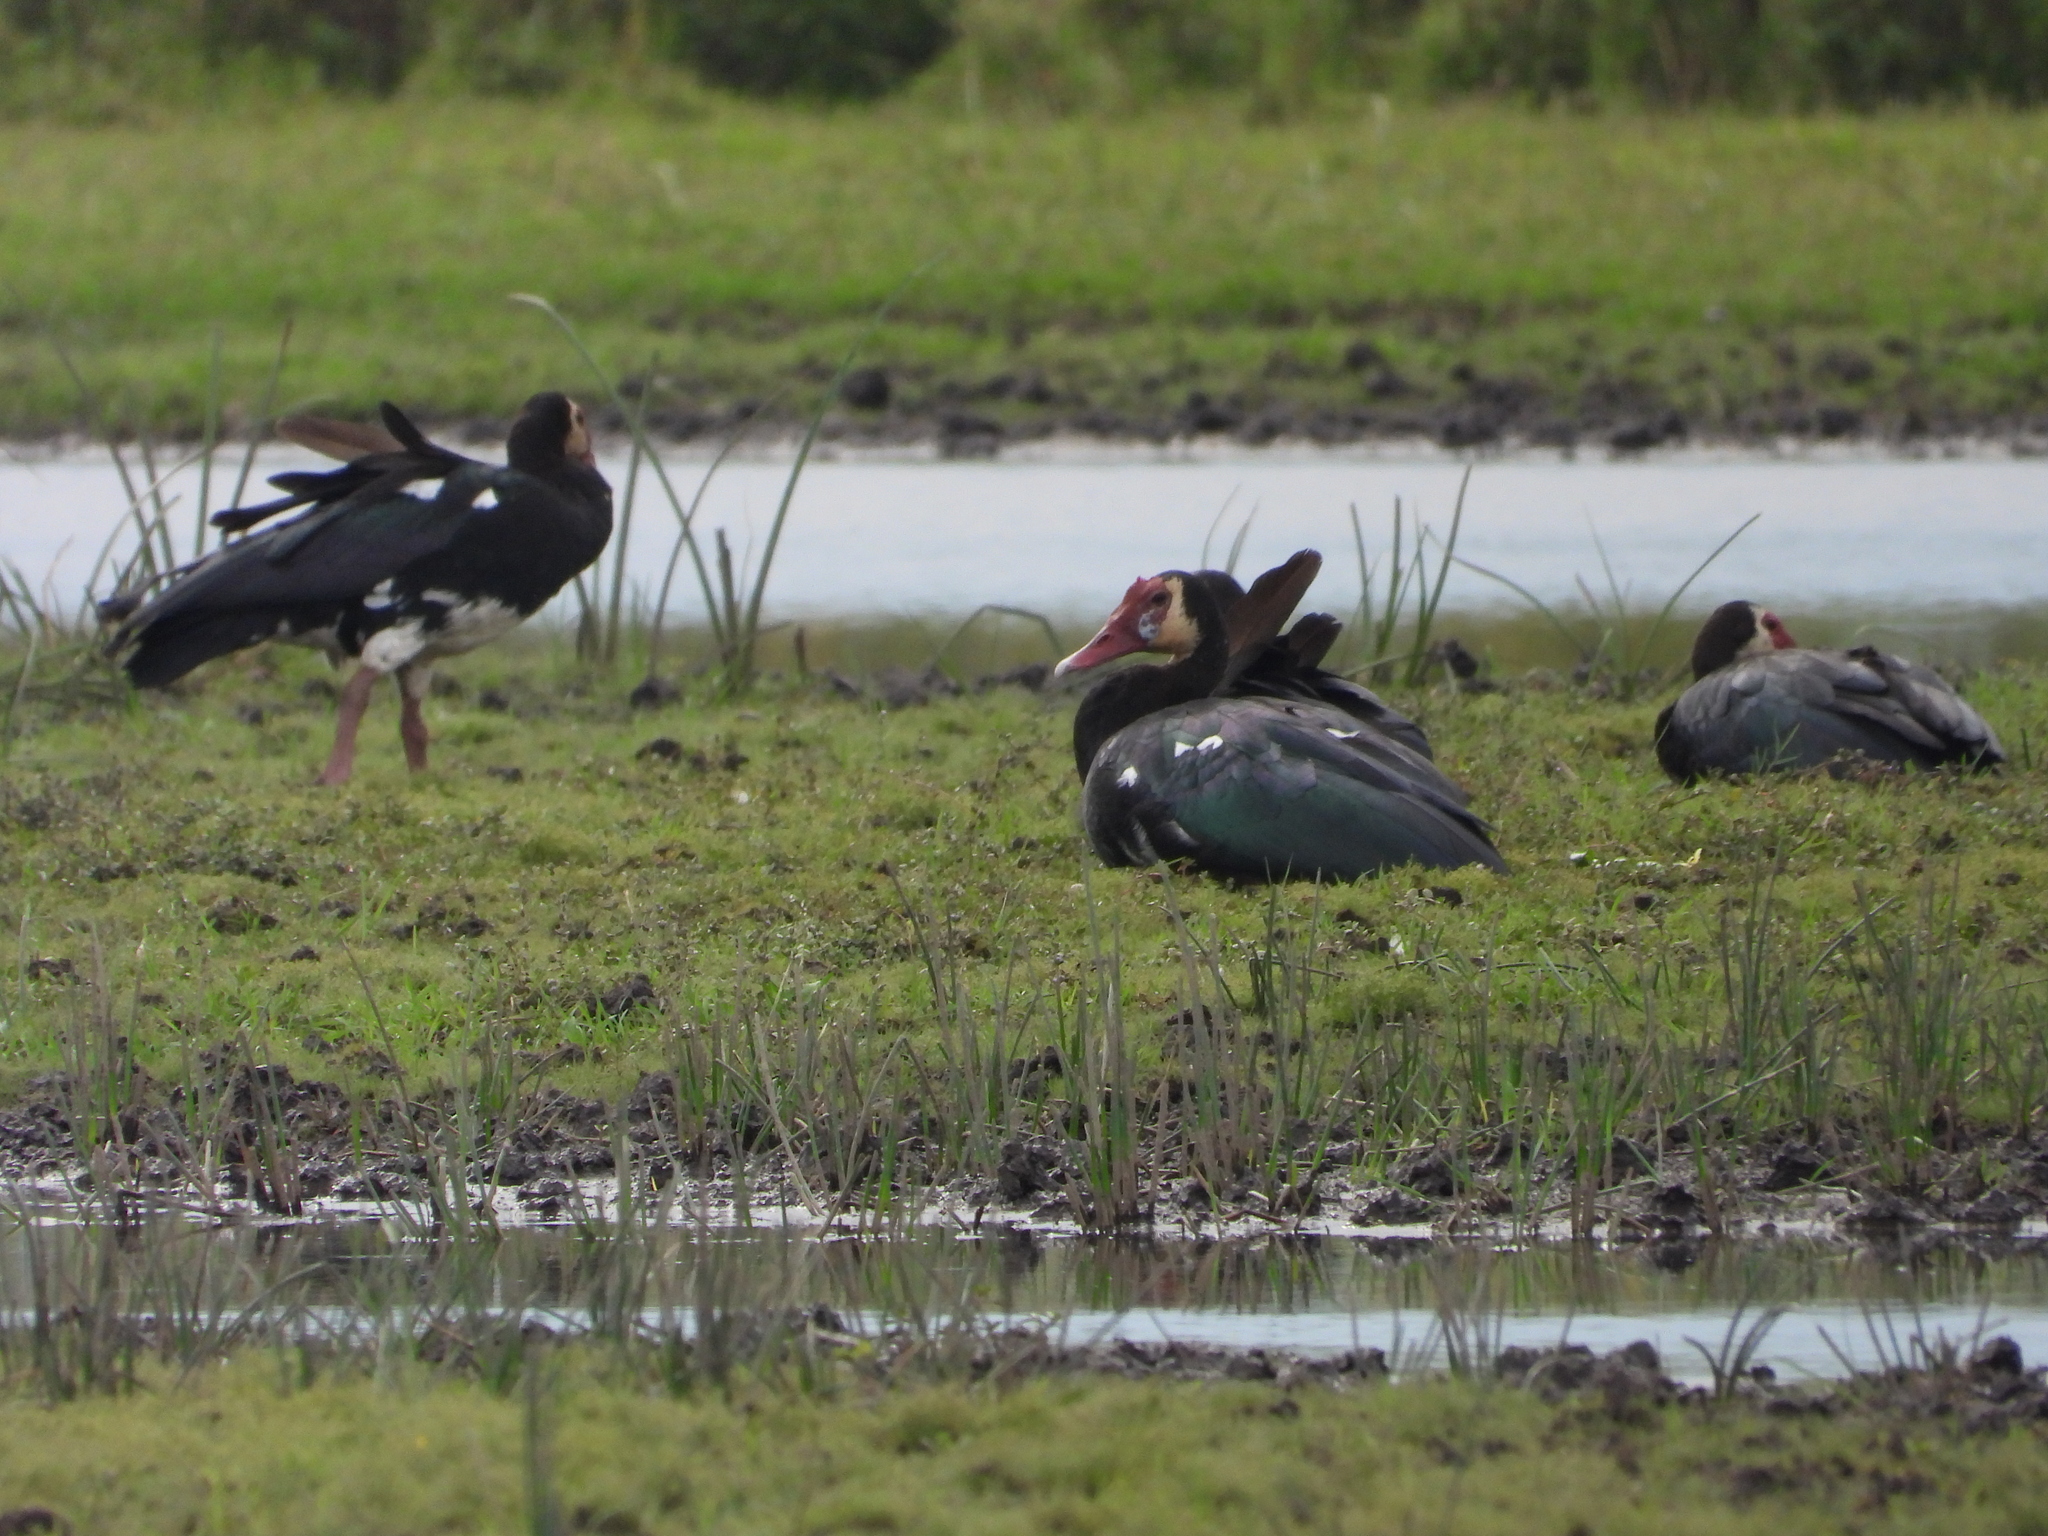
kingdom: Animalia
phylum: Chordata
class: Aves
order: Anseriformes
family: Anatidae
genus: Plectropterus
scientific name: Plectropterus gambensis
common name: Spur-winged goose
